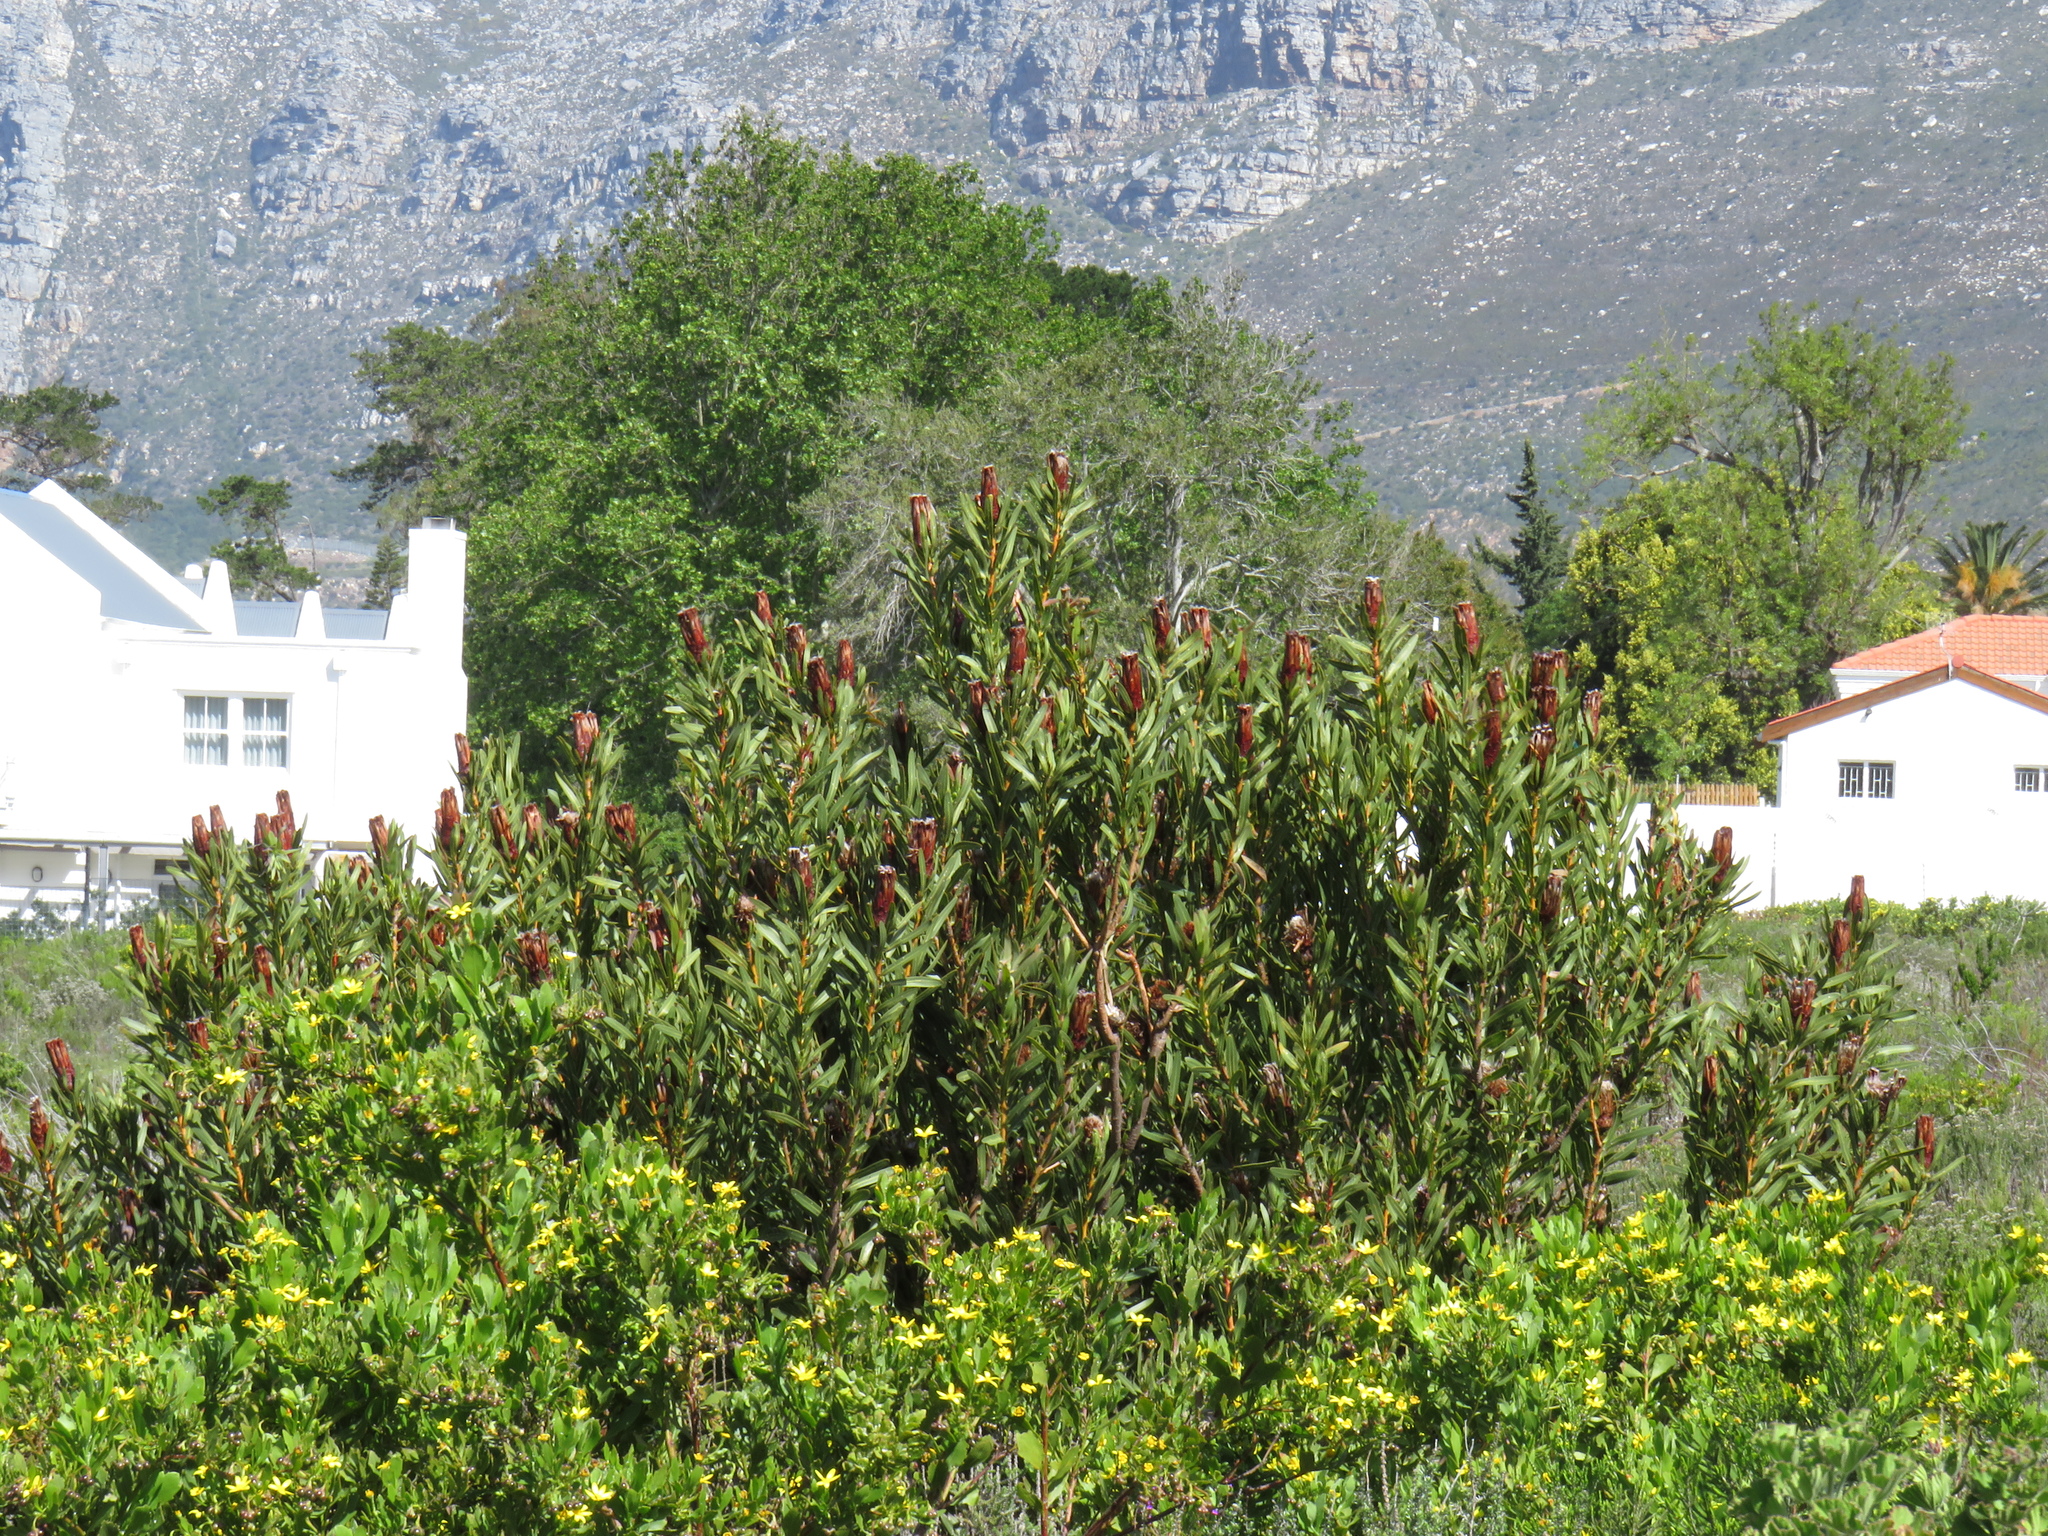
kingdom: Plantae
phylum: Tracheophyta
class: Magnoliopsida
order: Proteales
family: Proteaceae
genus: Protea
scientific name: Protea lepidocarpodendron
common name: Black-bearded protea
